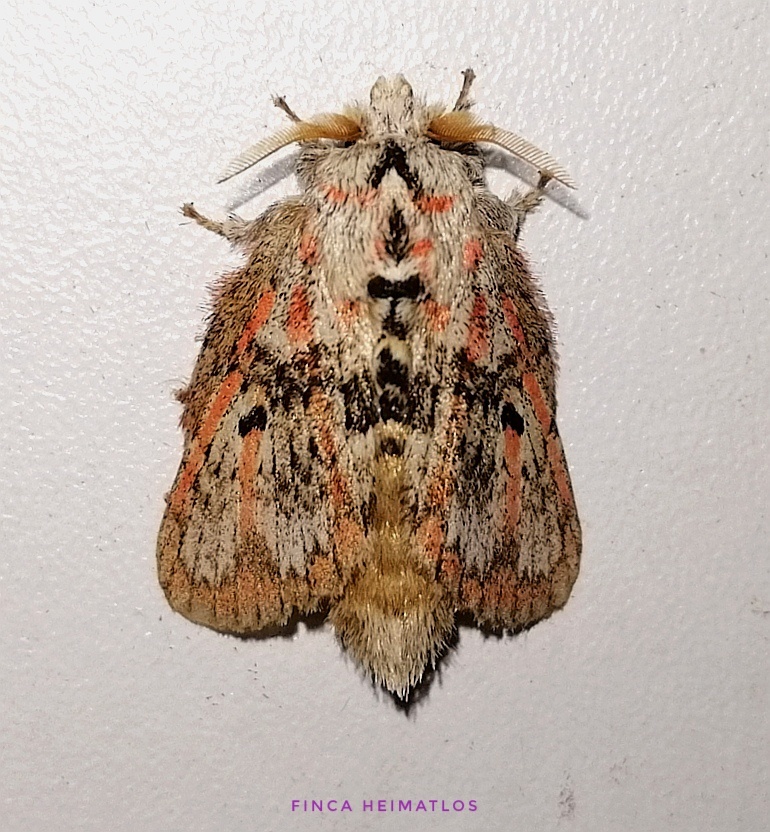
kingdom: Animalia
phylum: Arthropoda
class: Insecta
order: Lepidoptera
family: Lasiocampidae
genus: Euglyphis
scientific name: Euglyphis gibea
